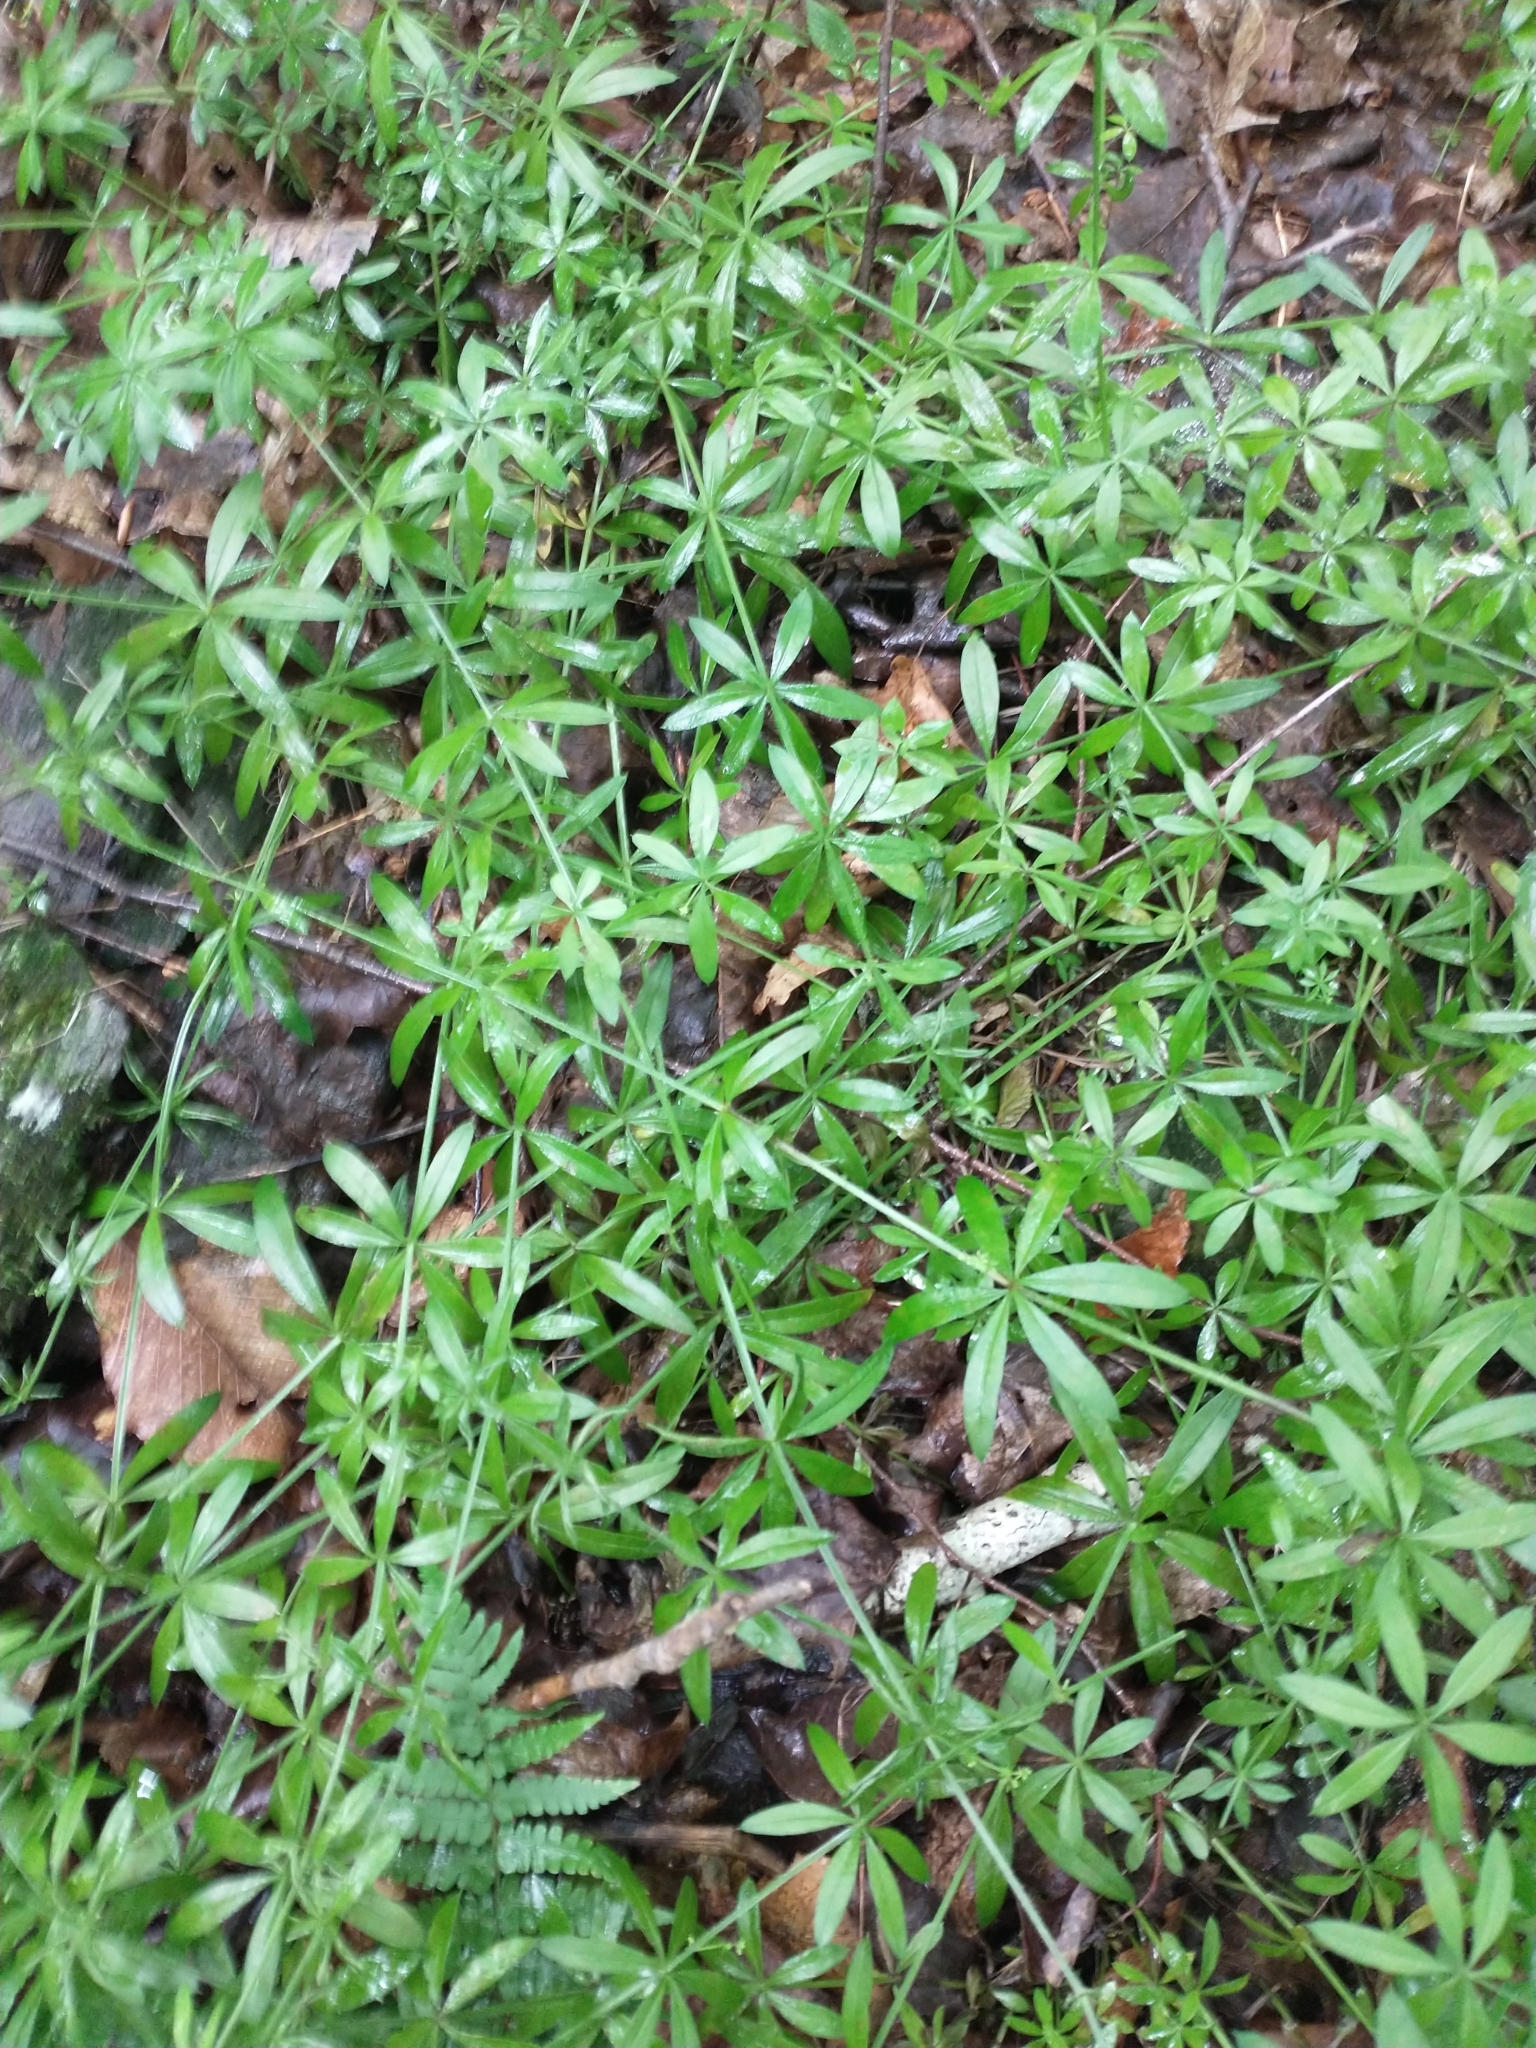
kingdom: Plantae
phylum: Tracheophyta
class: Magnoliopsida
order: Gentianales
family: Rubiaceae
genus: Galium
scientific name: Galium triflorum
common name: Fragrant bedstraw
